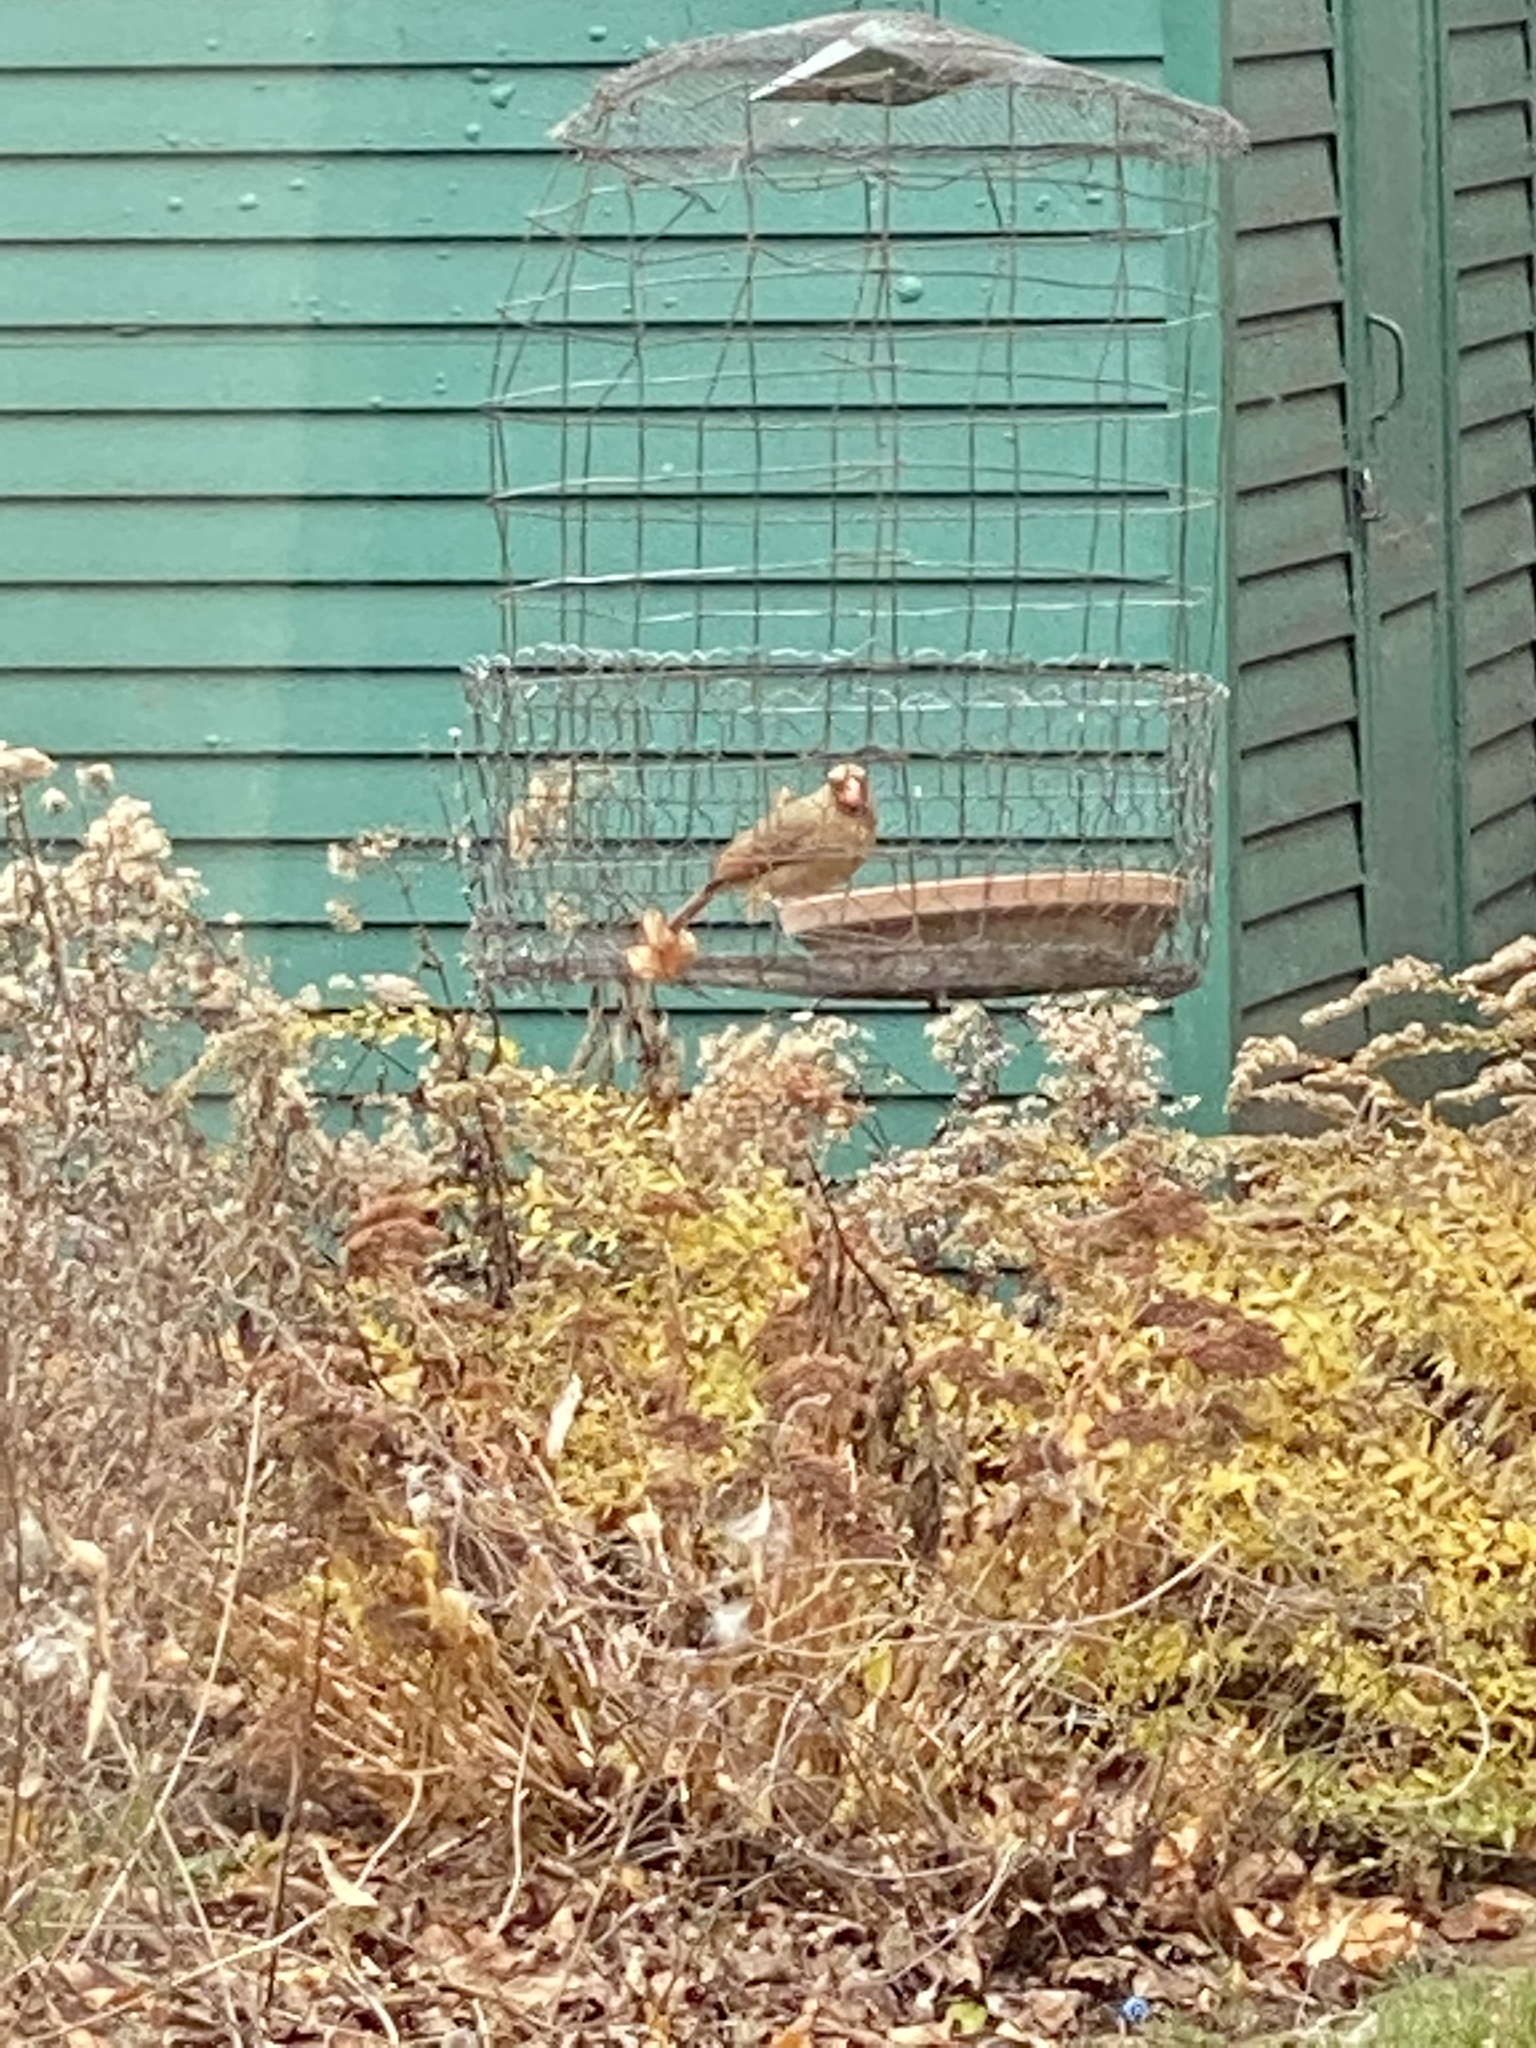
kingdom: Animalia
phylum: Chordata
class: Aves
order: Passeriformes
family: Cardinalidae
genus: Cardinalis
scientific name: Cardinalis cardinalis
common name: Northern cardinal
